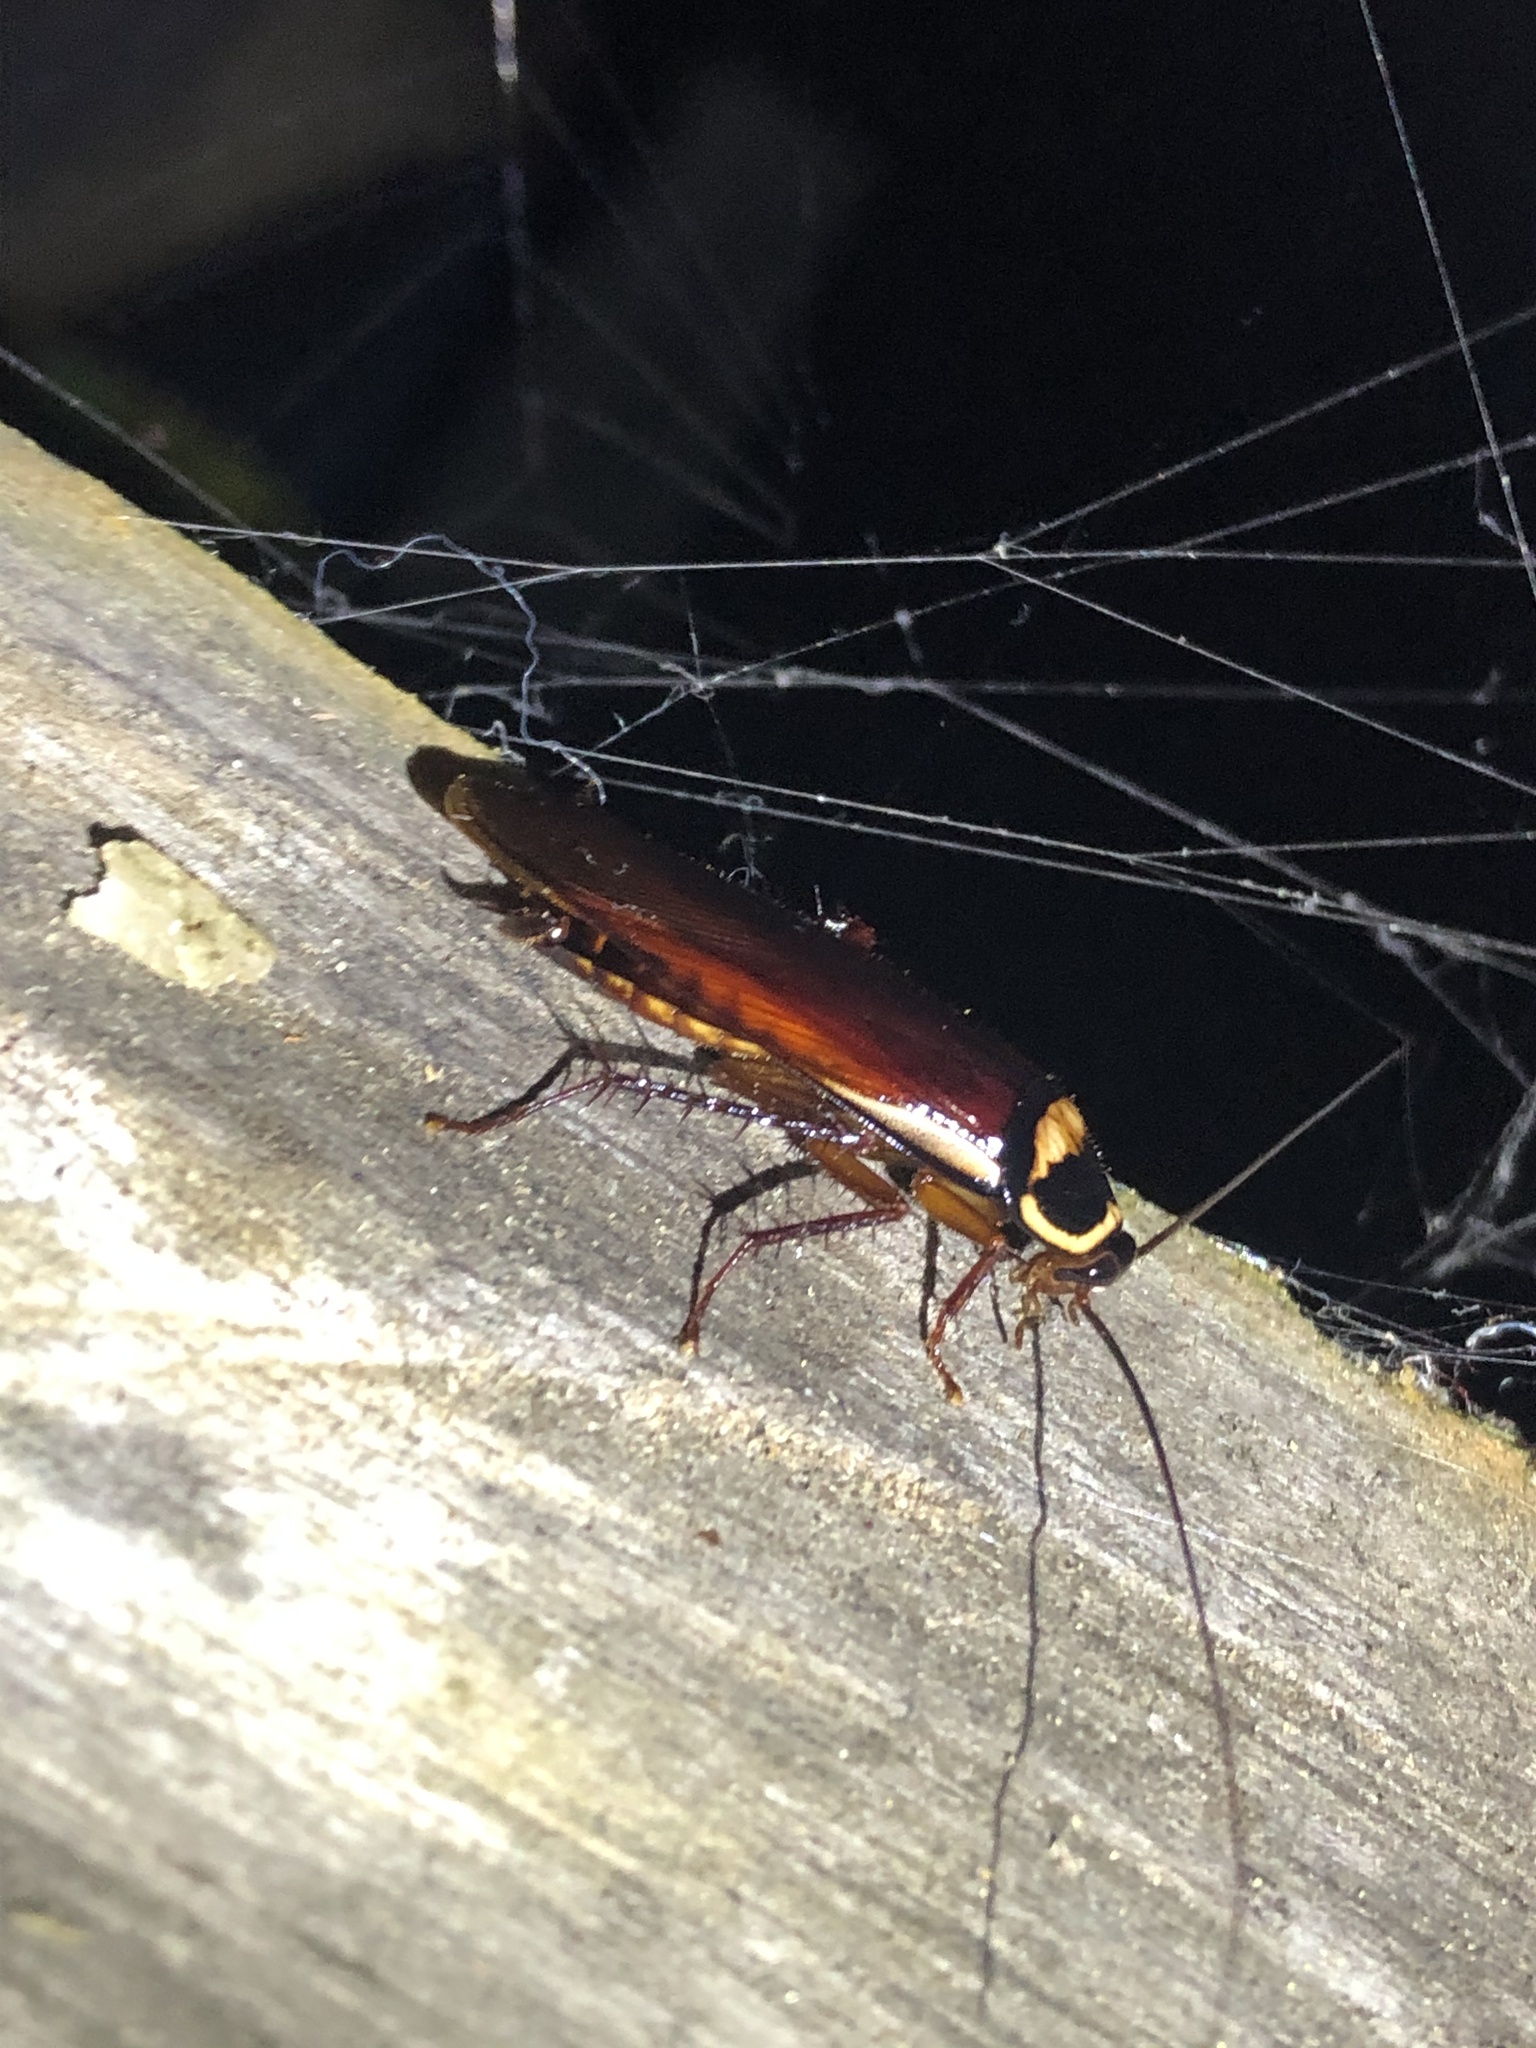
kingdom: Animalia
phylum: Arthropoda
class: Insecta
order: Blattodea
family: Blattidae
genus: Periplaneta
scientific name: Periplaneta australasiae
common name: Australian cockroach
